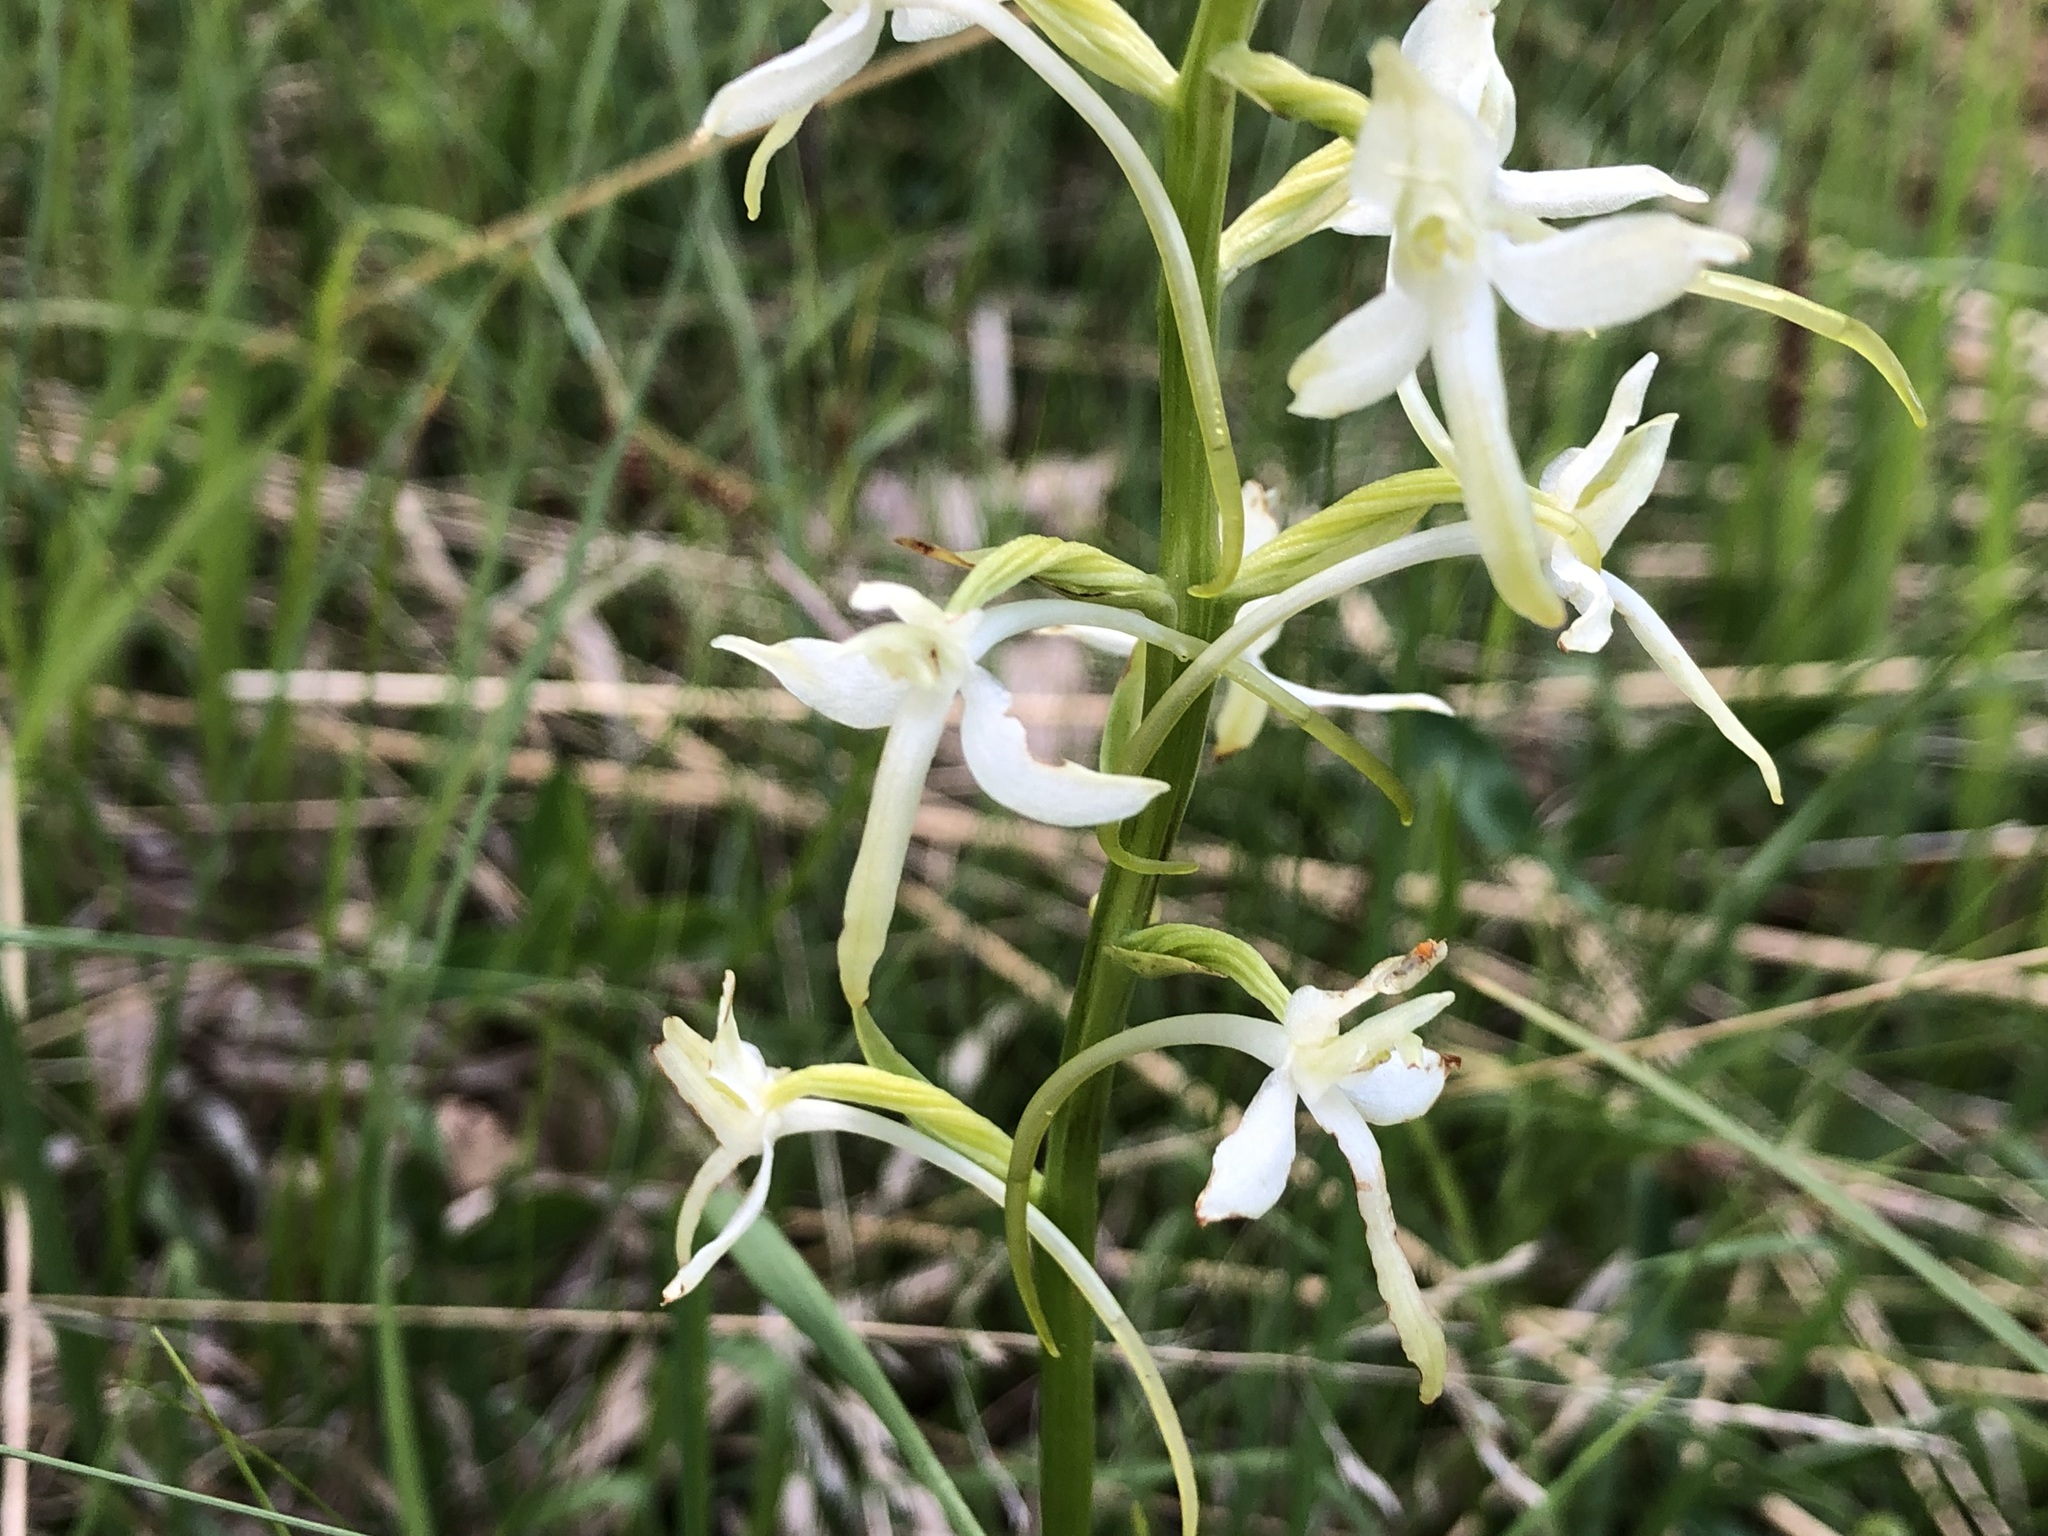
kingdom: Plantae
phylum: Tracheophyta
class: Liliopsida
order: Asparagales
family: Orchidaceae
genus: Platanthera
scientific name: Platanthera bifolia
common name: Lesser butterfly-orchid
